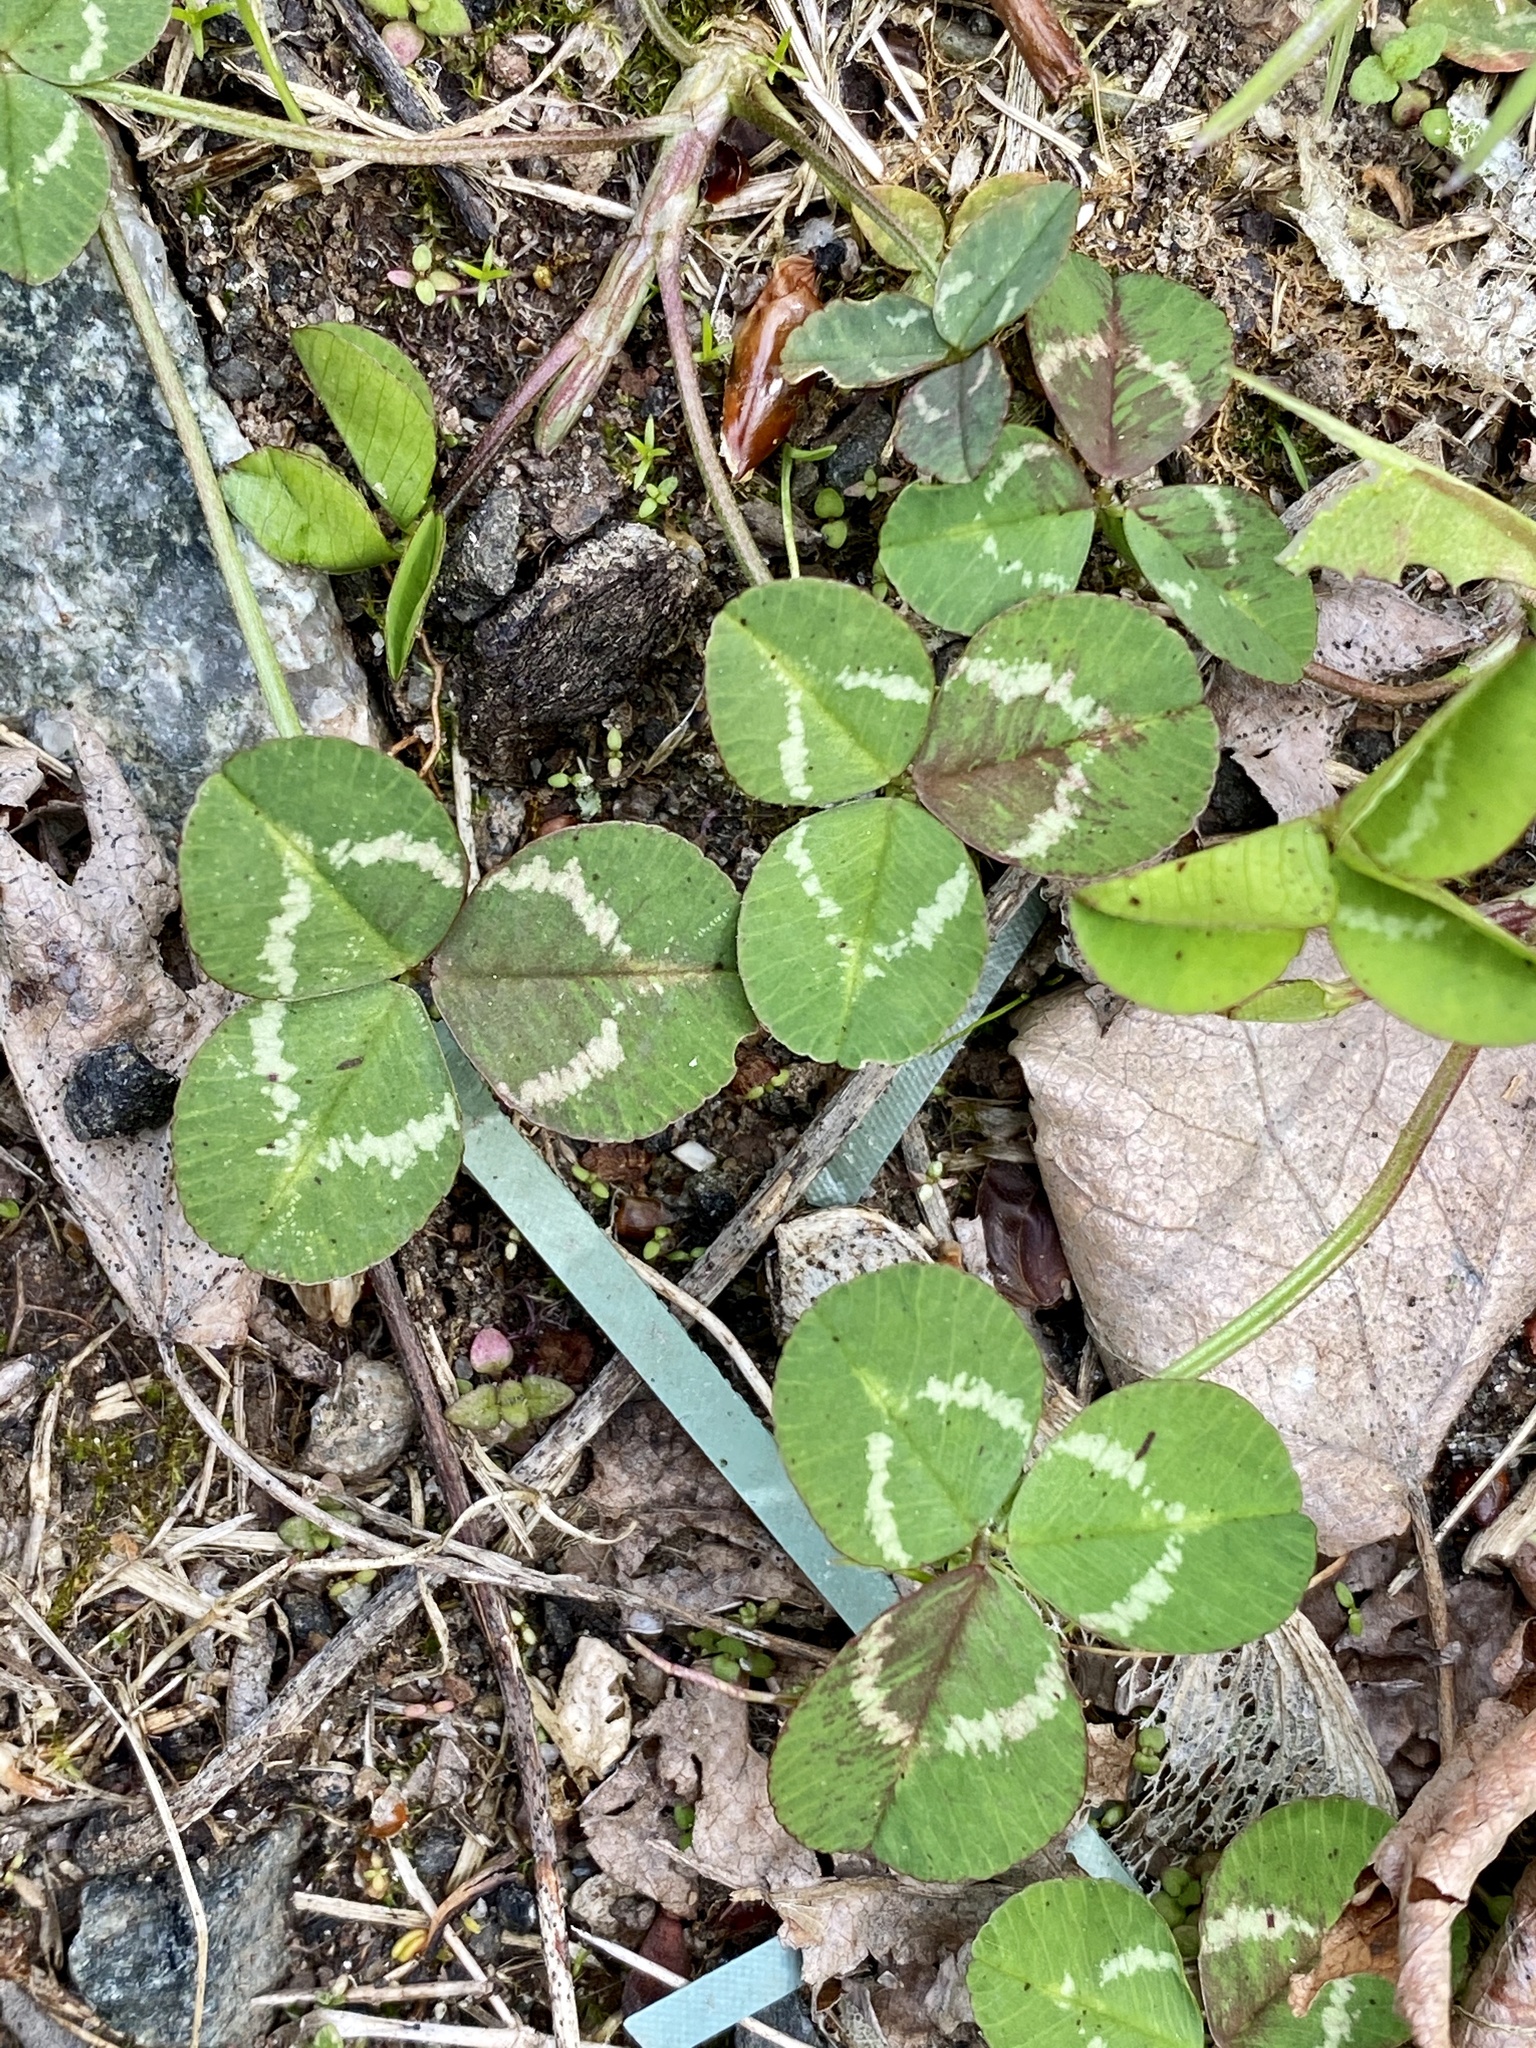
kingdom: Plantae
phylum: Tracheophyta
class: Magnoliopsida
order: Fabales
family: Fabaceae
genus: Trifolium
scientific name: Trifolium repens
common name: White clover
